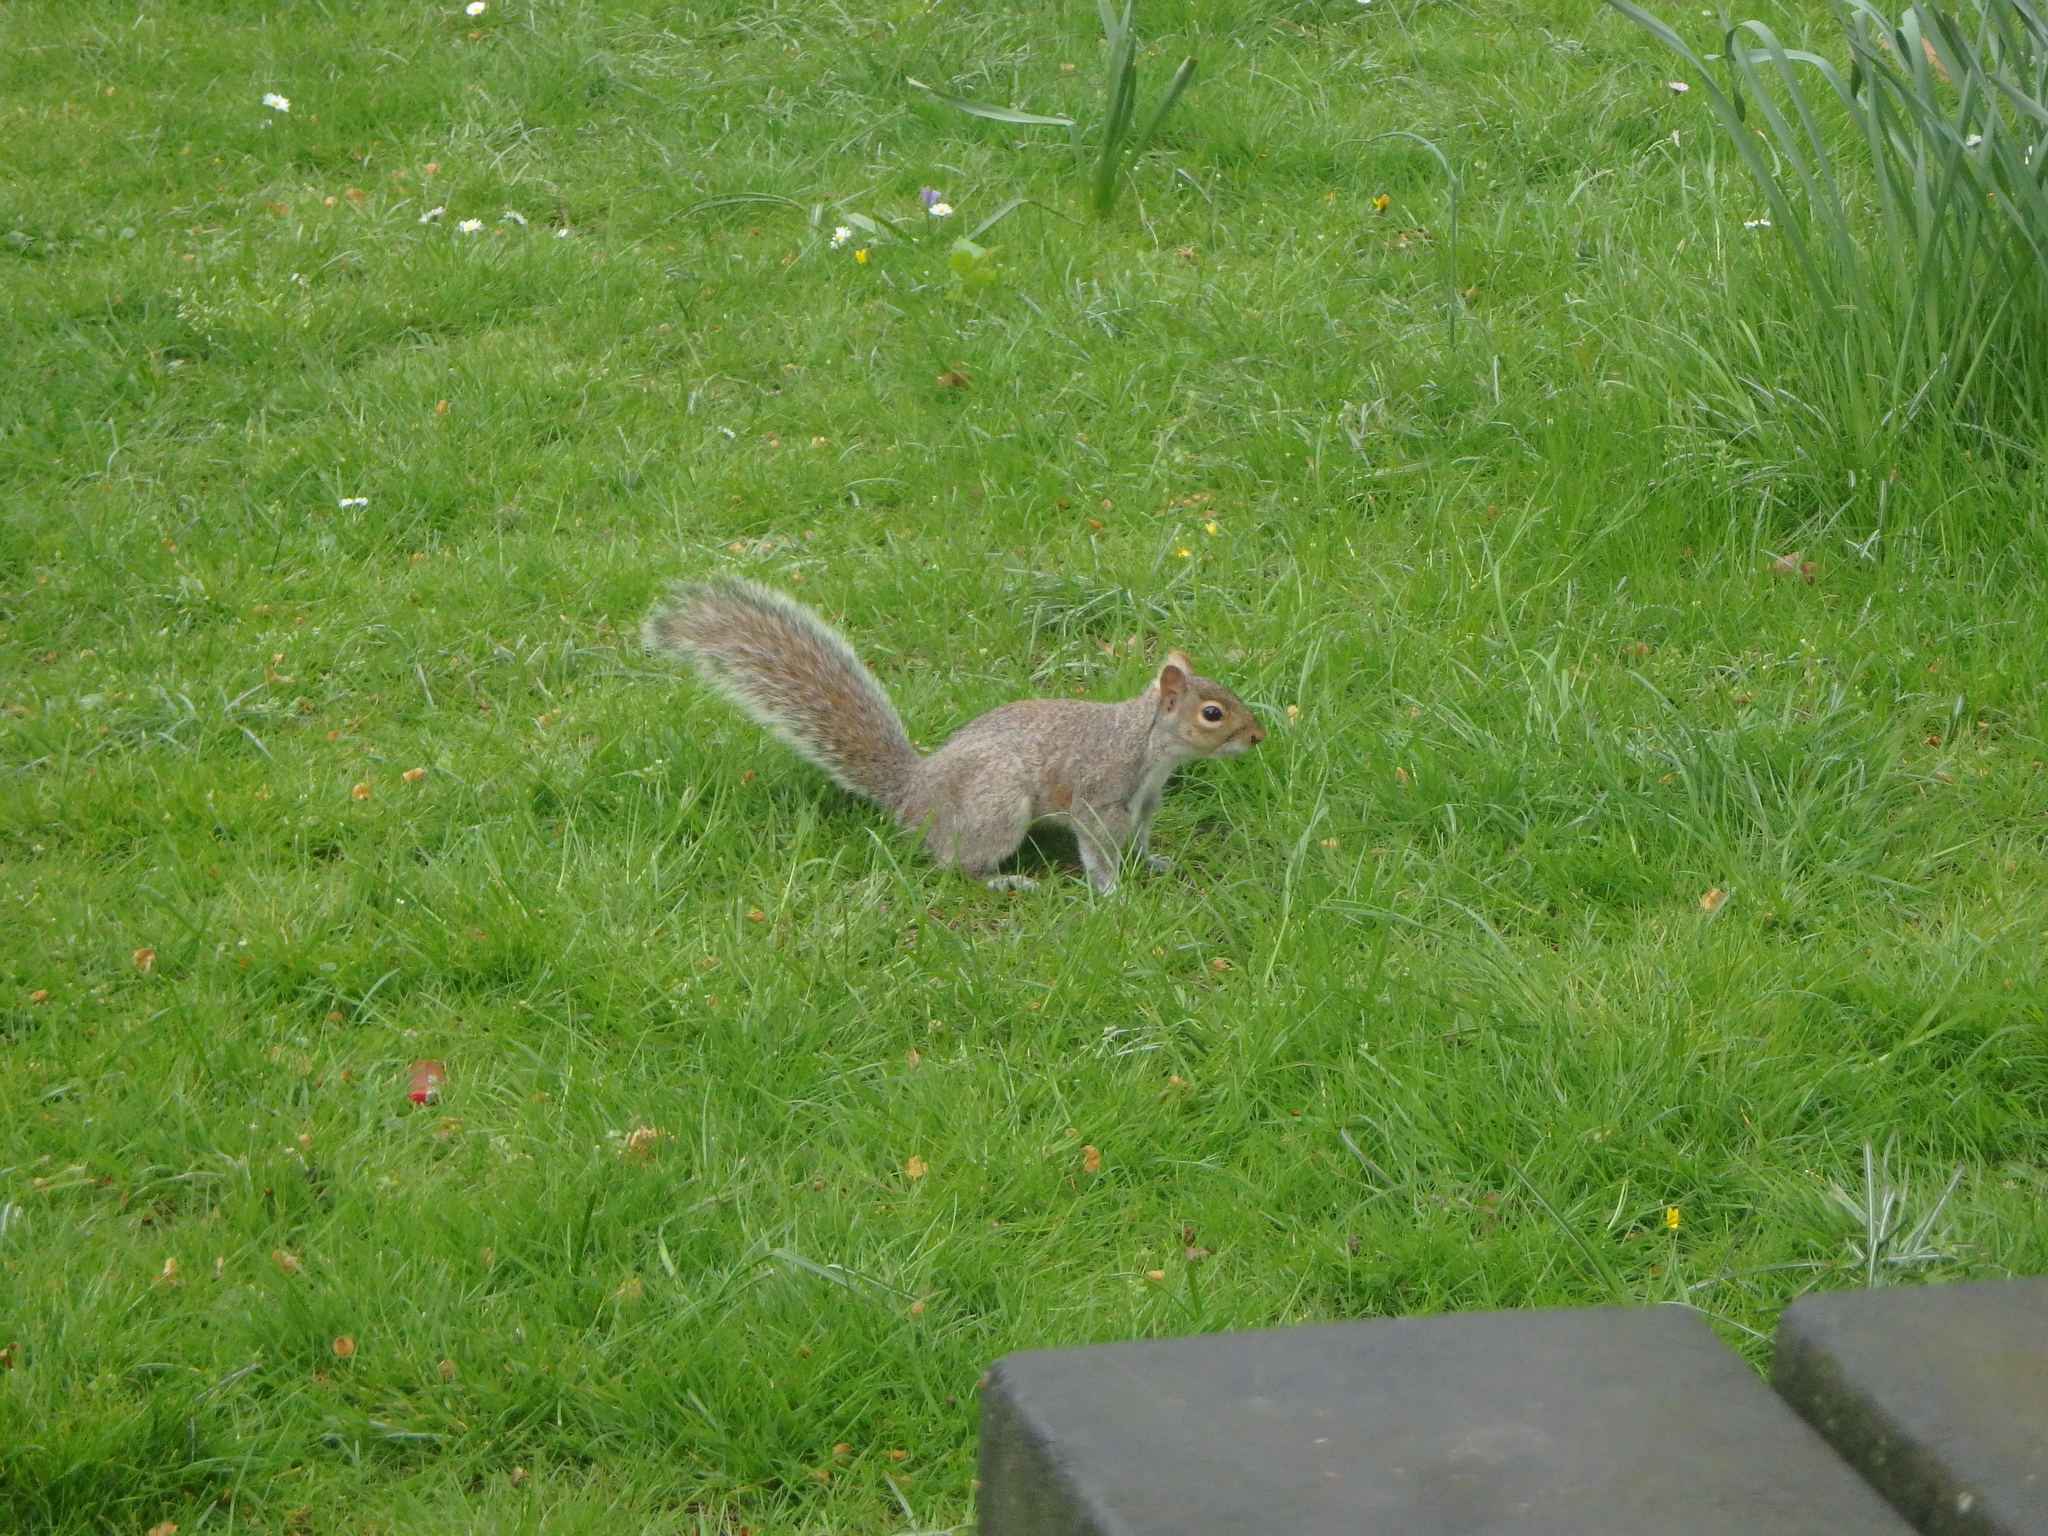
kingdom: Animalia
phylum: Chordata
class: Mammalia
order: Rodentia
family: Sciuridae
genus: Sciurus
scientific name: Sciurus carolinensis
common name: Eastern gray squirrel
